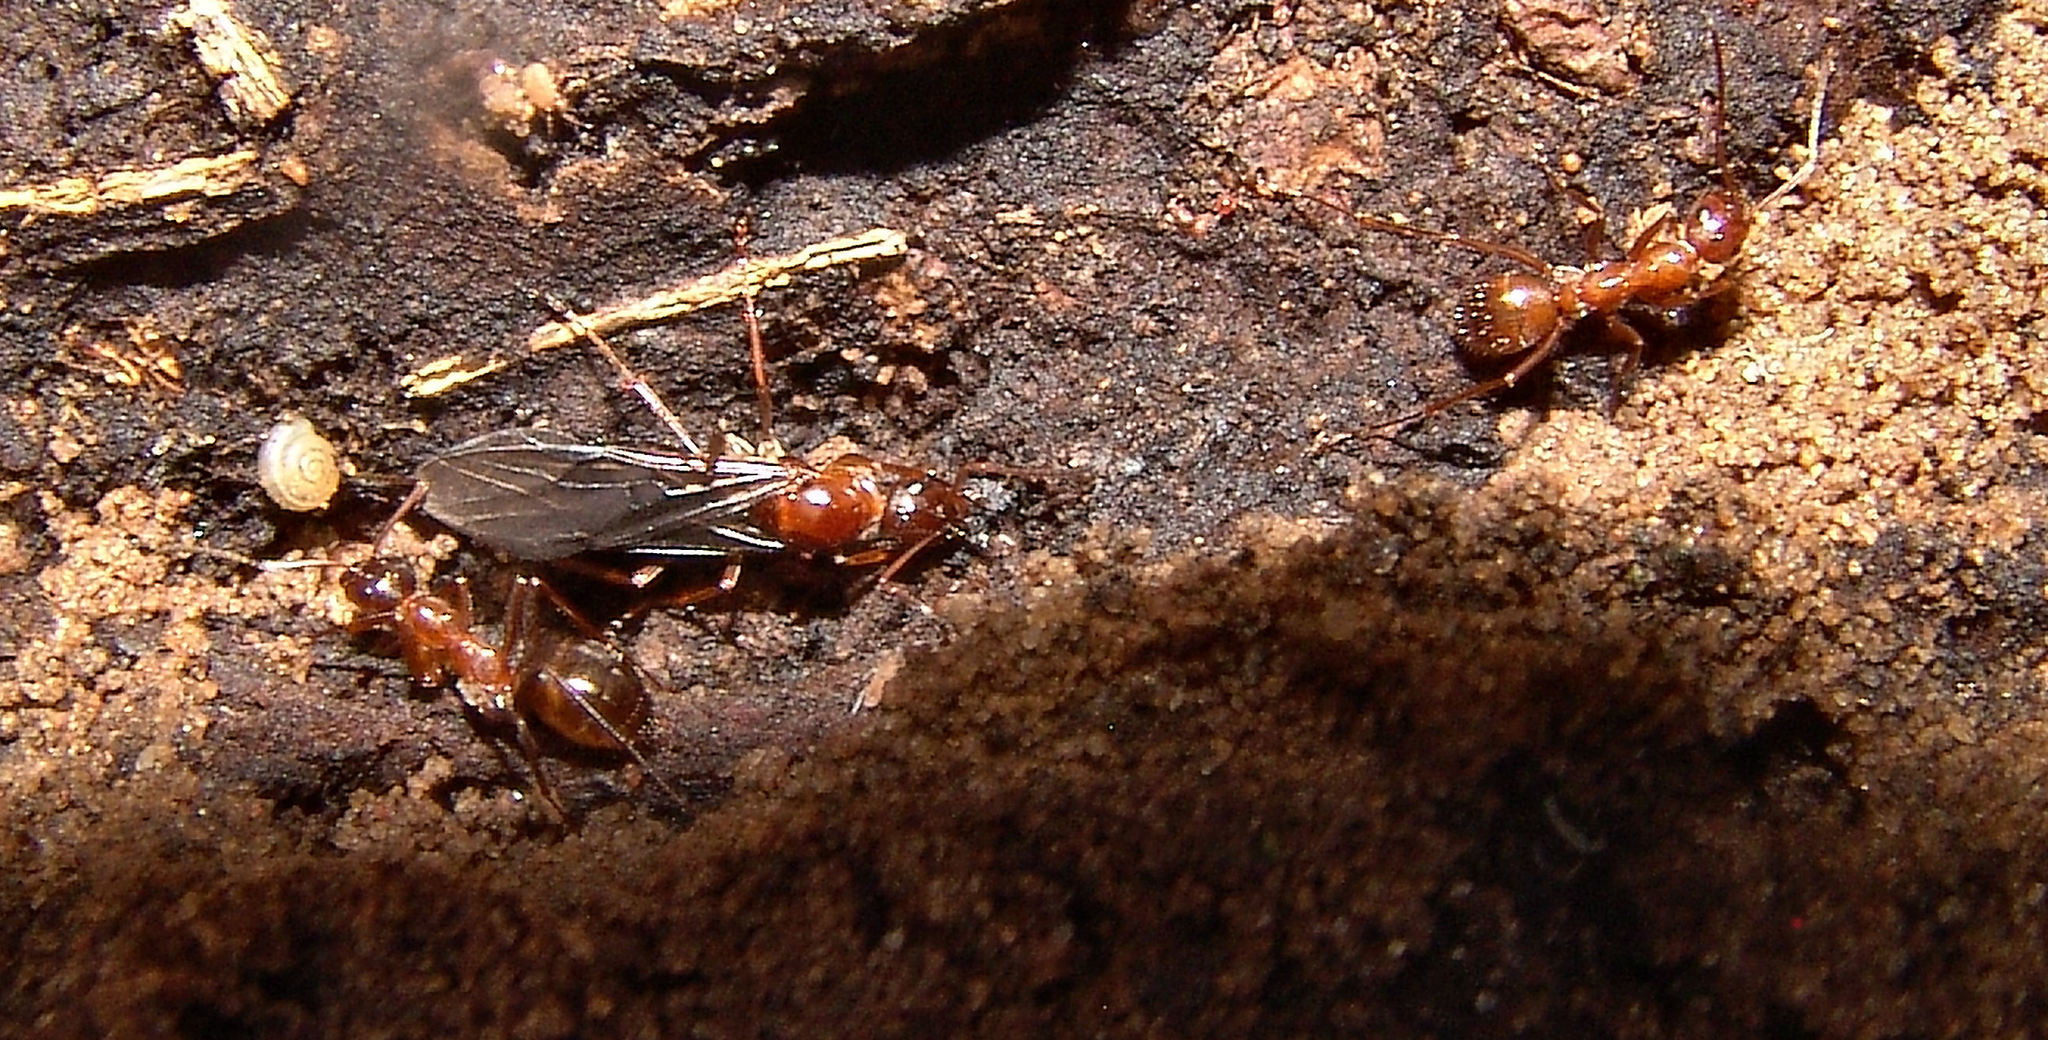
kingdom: Animalia
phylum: Arthropoda
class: Insecta
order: Hymenoptera
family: Formicidae
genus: Formica
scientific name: Formica
